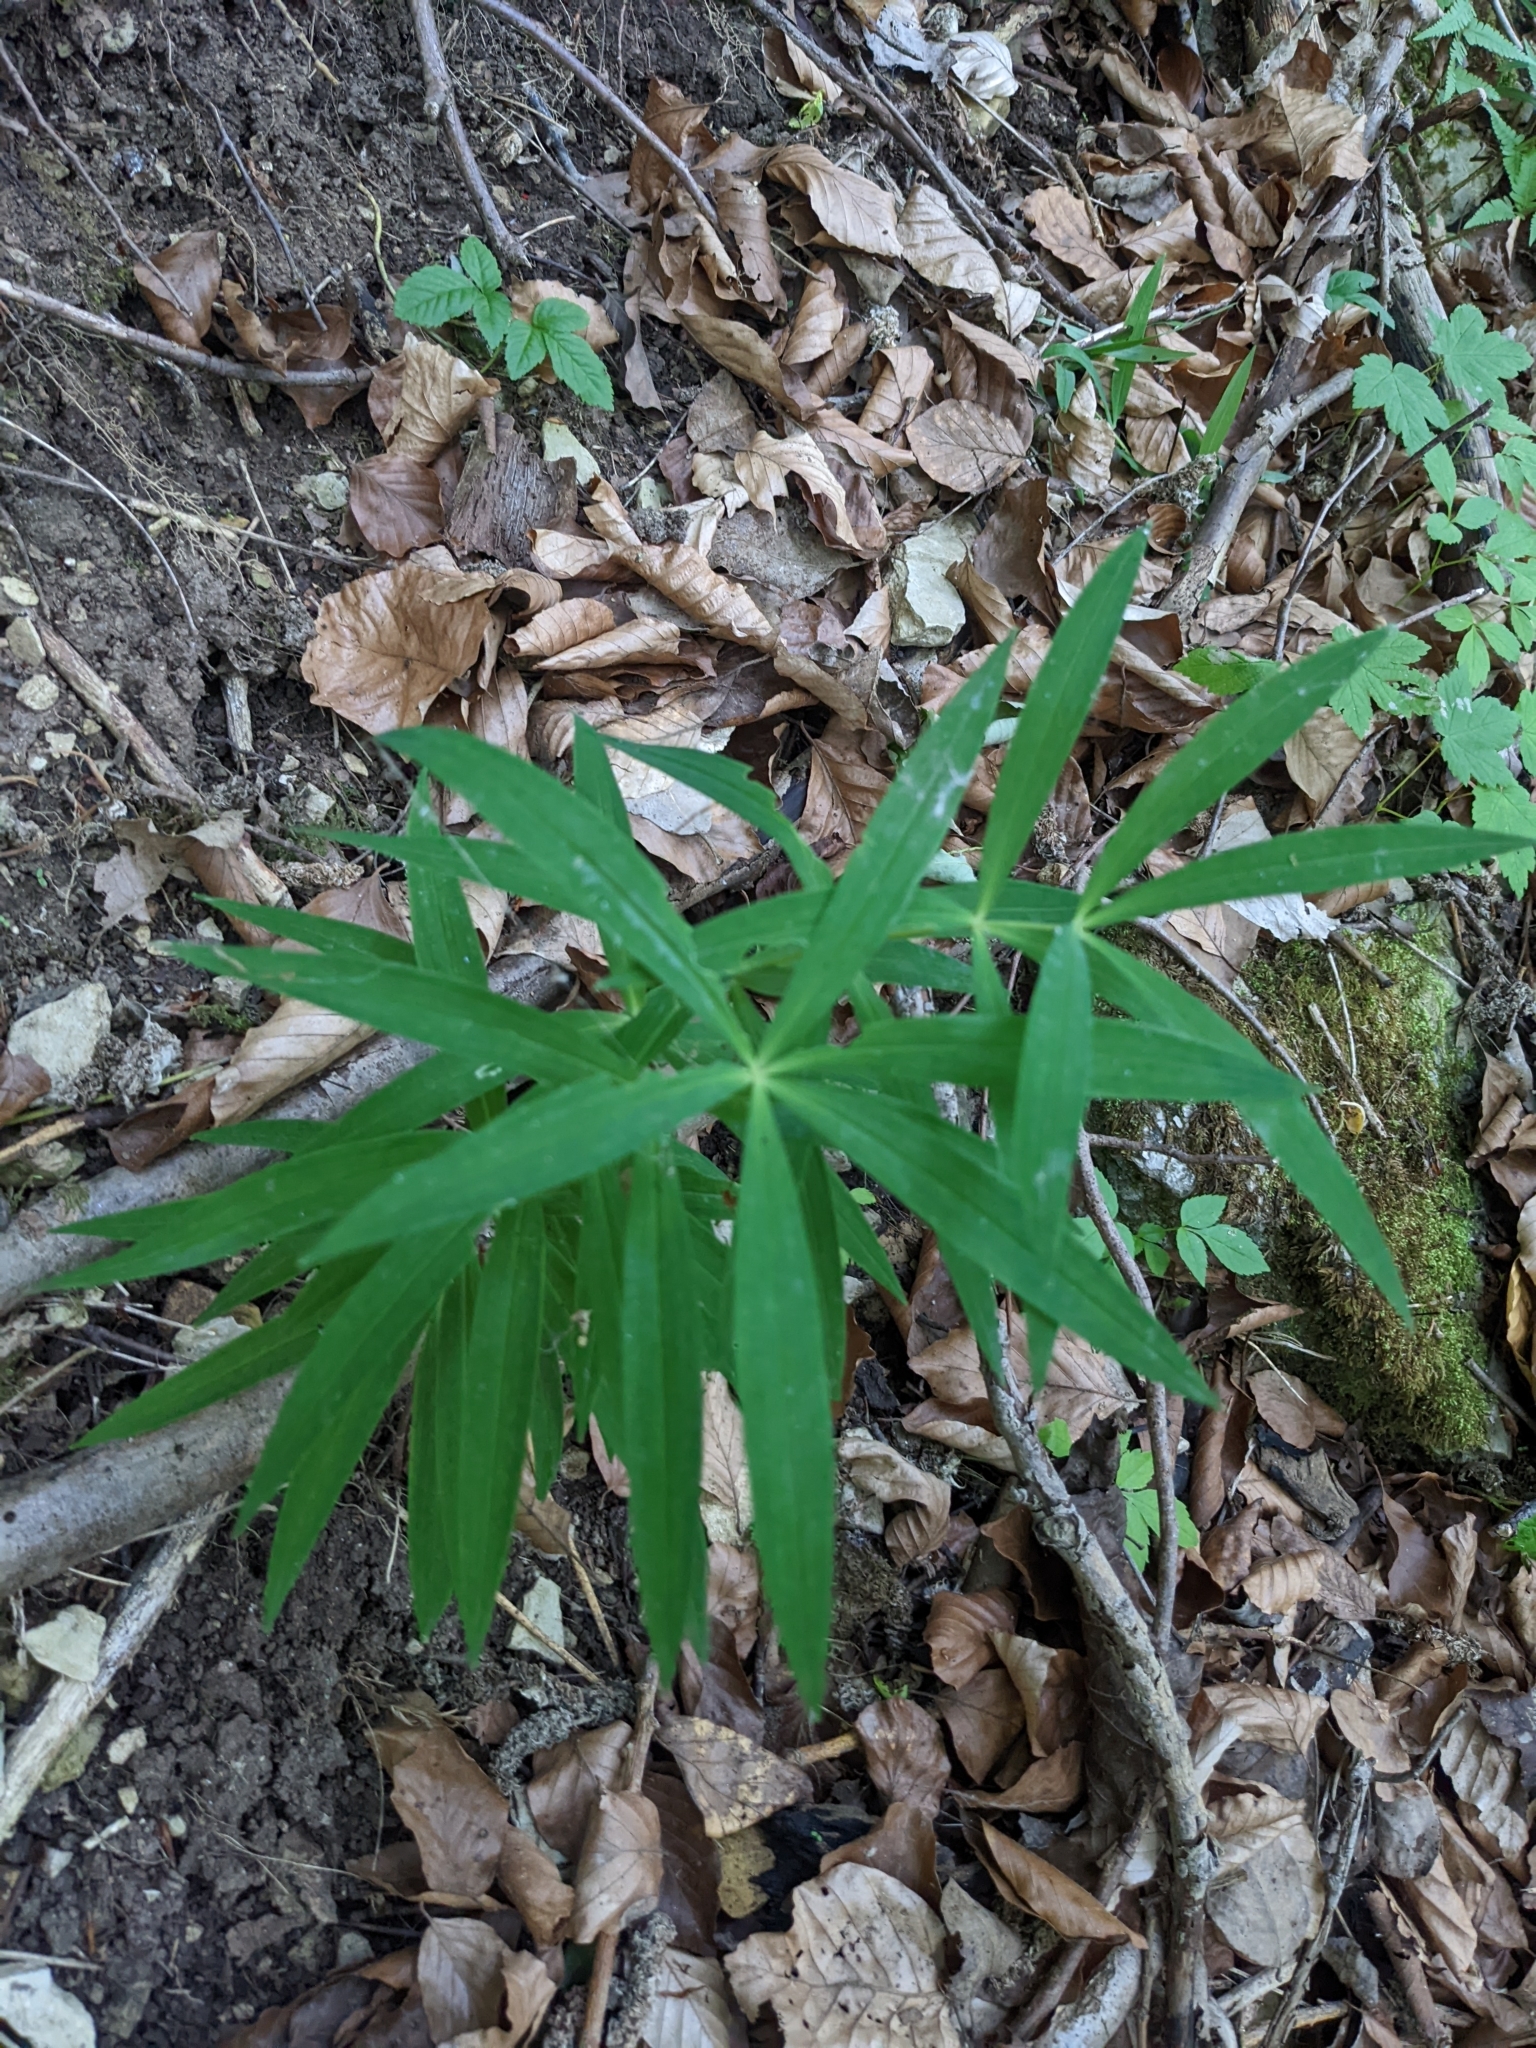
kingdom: Plantae
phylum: Tracheophyta
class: Liliopsida
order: Asparagales
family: Asparagaceae
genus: Polygonatum
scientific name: Polygonatum verticillatum
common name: Whorled solomon's-seal
